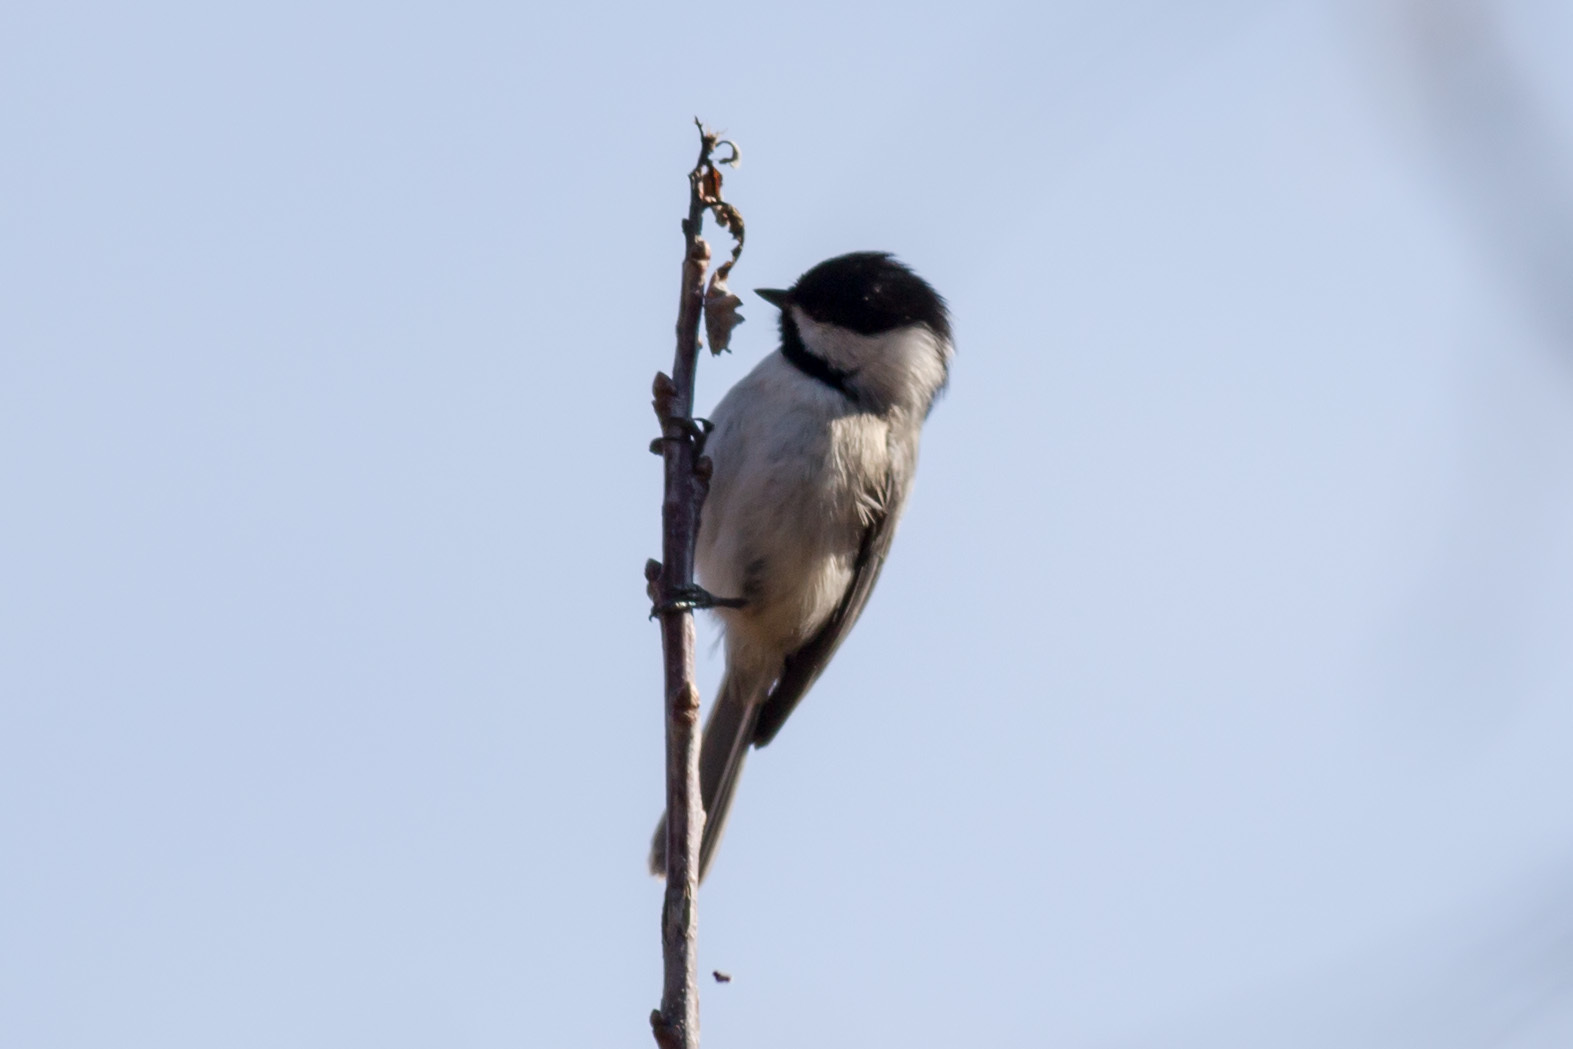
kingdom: Animalia
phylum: Chordata
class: Aves
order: Passeriformes
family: Paridae
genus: Poecile
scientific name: Poecile carolinensis
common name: Carolina chickadee
